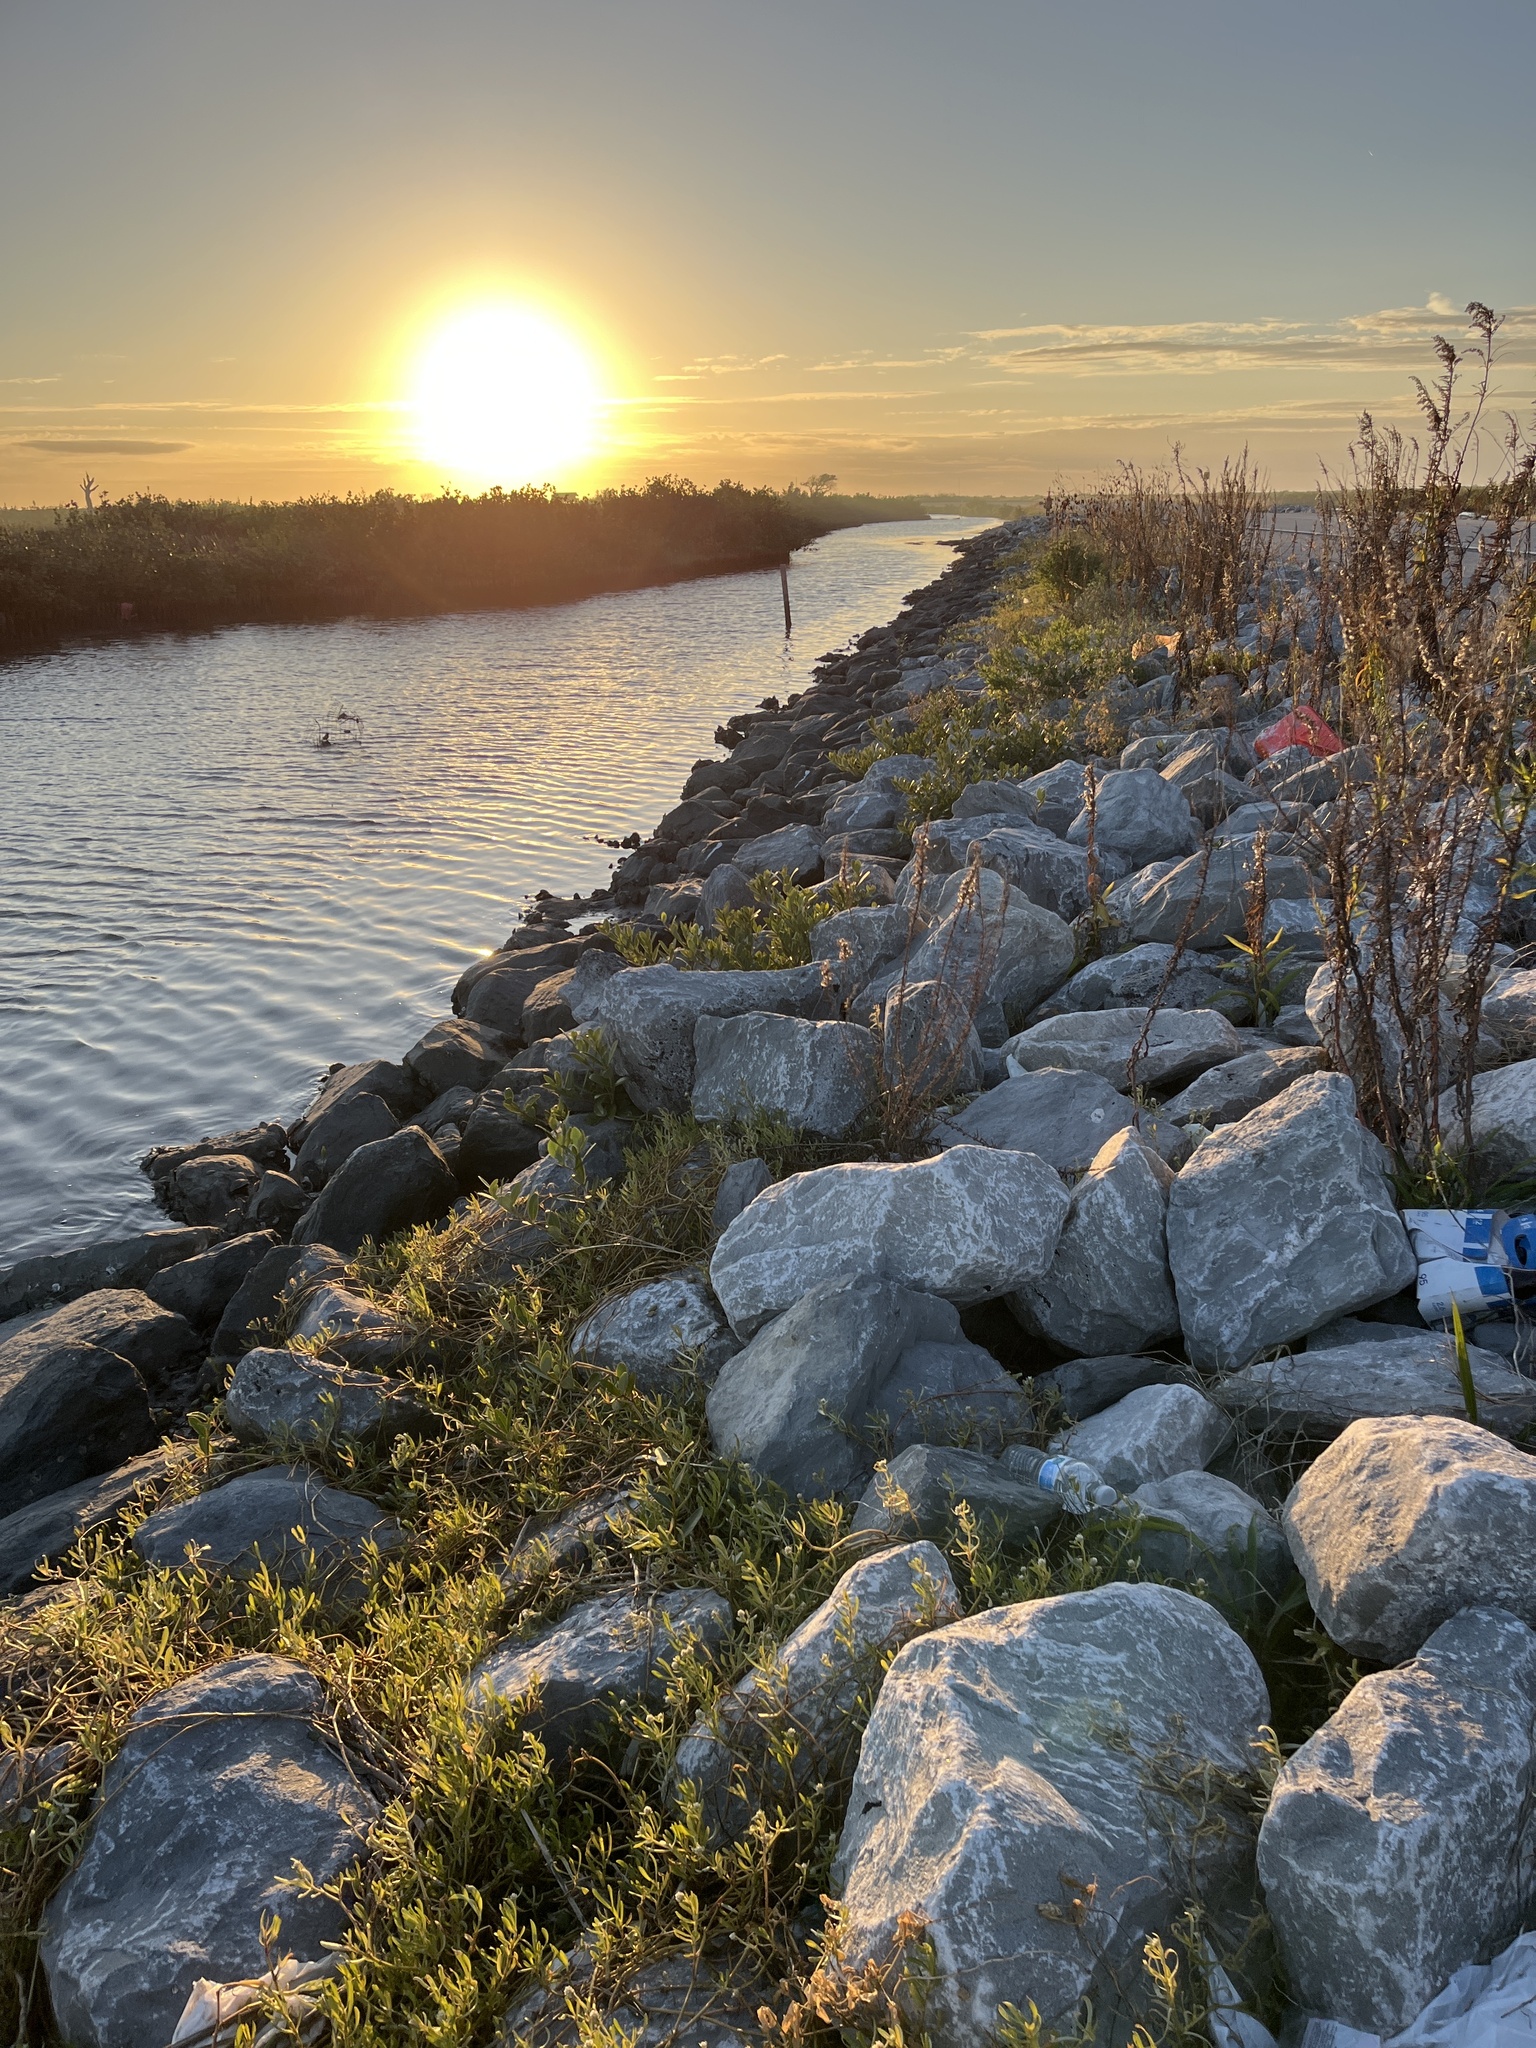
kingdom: Plantae
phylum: Tracheophyta
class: Magnoliopsida
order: Brassicales
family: Bataceae
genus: Batis
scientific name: Batis maritima
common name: Turtleweed
